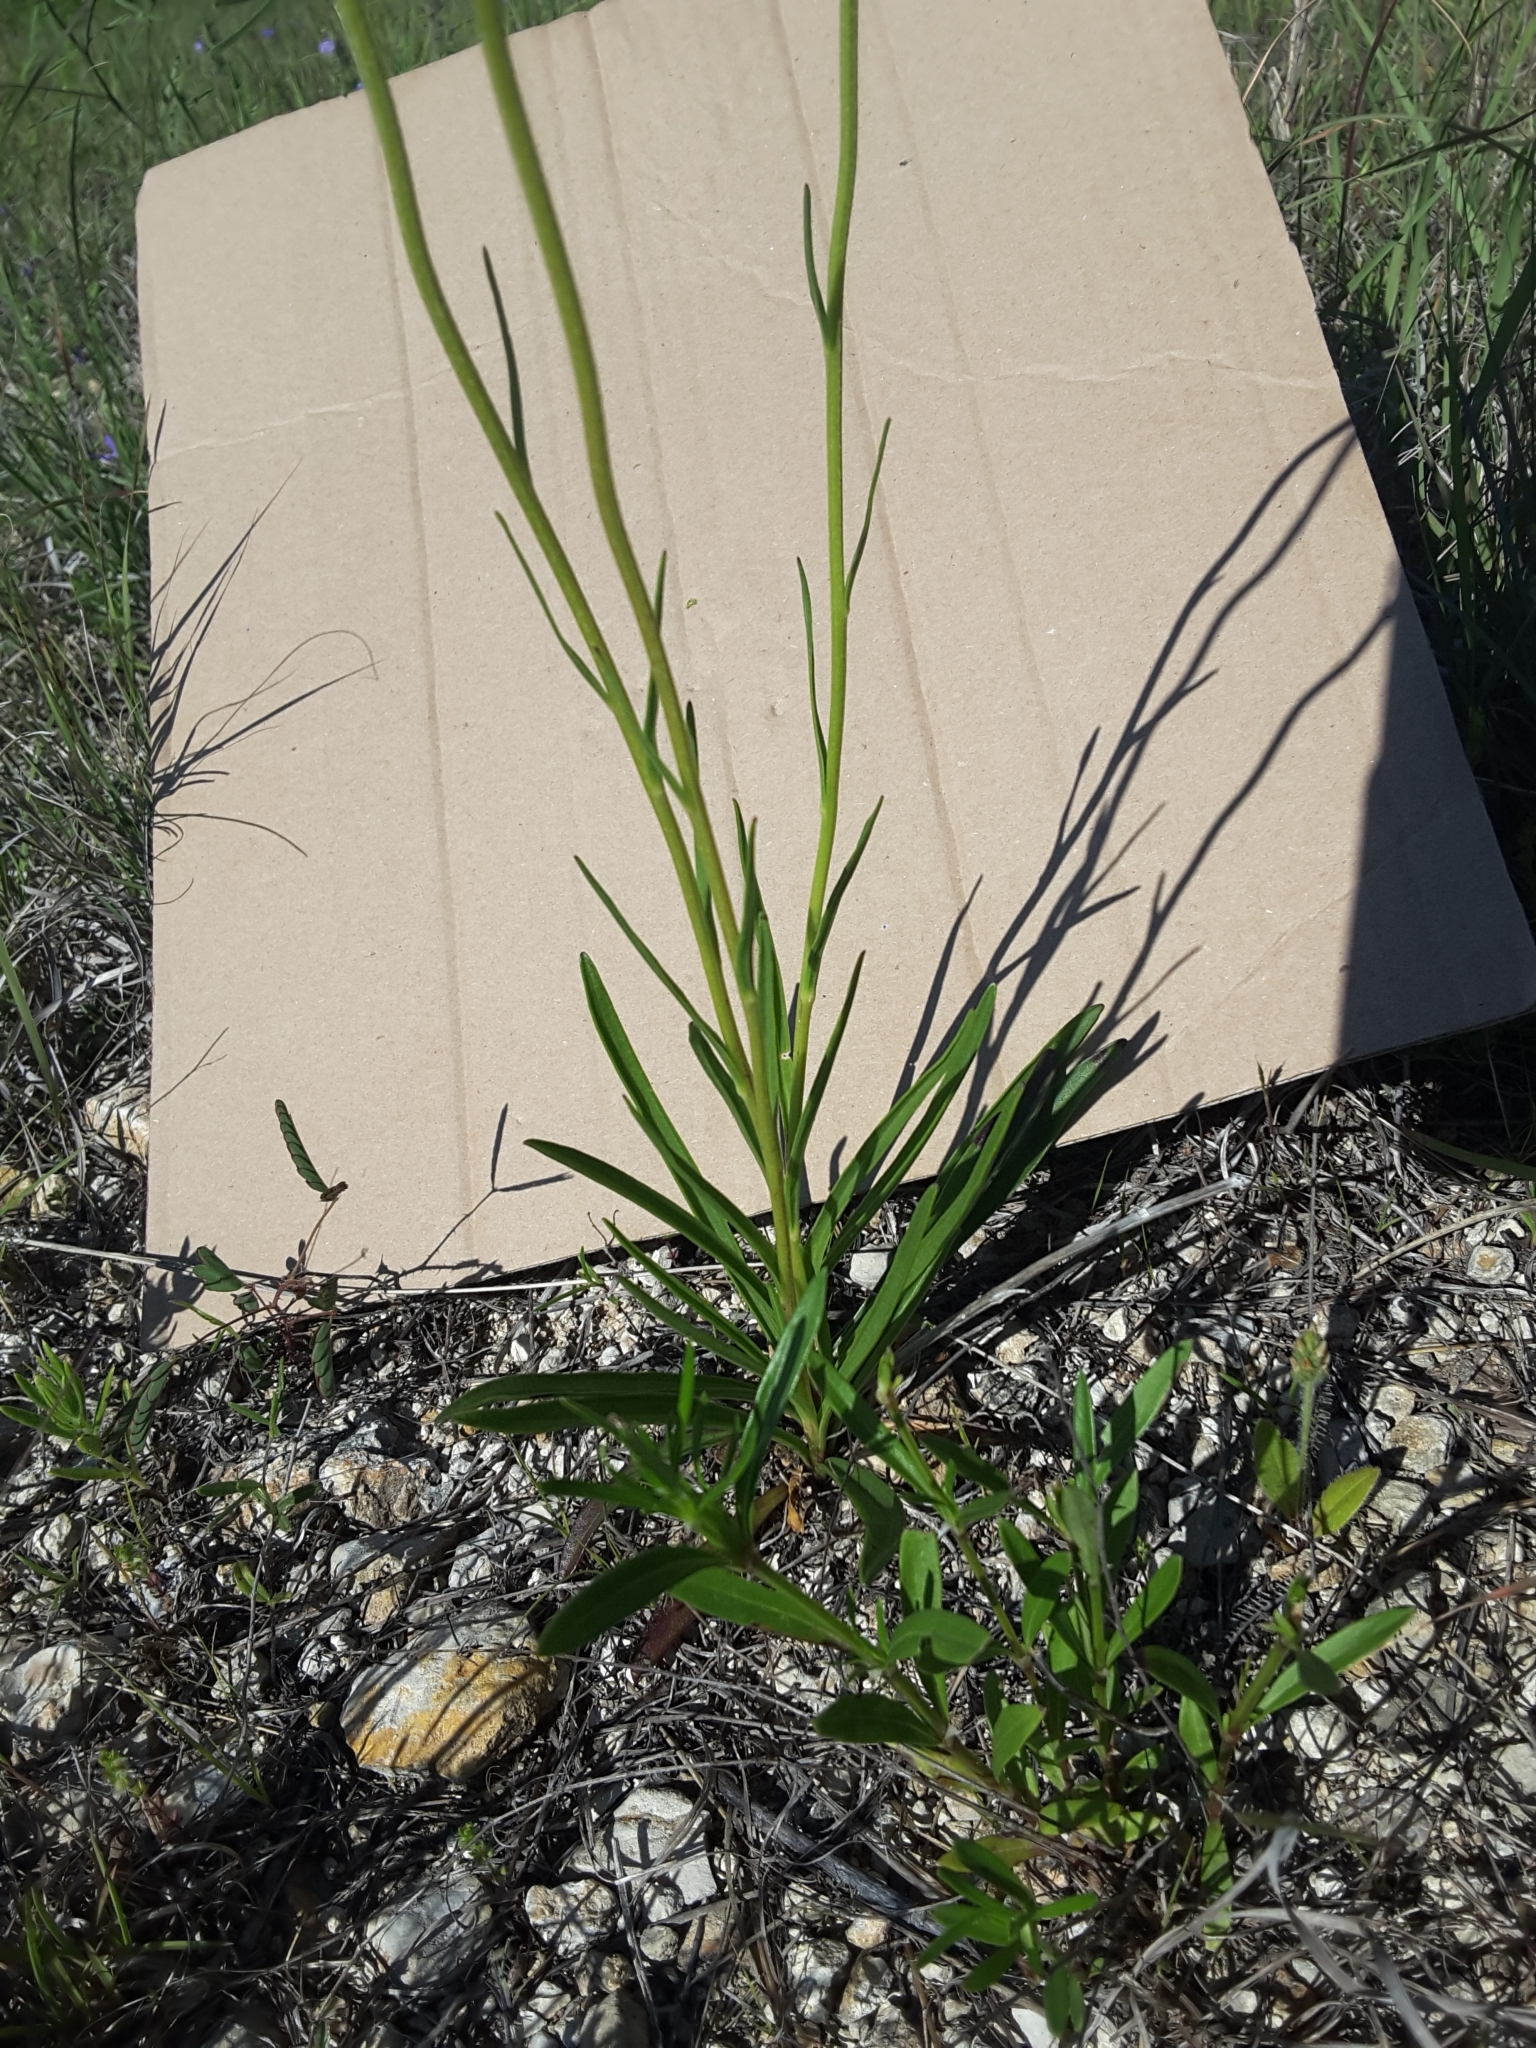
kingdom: Plantae
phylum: Tracheophyta
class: Magnoliopsida
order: Asterales
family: Asteraceae
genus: Marshallia
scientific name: Marshallia caespitosa
